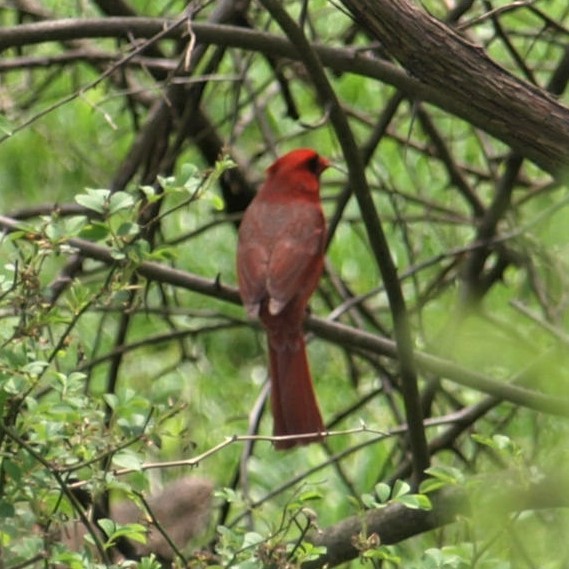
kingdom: Animalia
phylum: Chordata
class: Aves
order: Passeriformes
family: Cardinalidae
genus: Cardinalis
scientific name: Cardinalis cardinalis
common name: Northern cardinal
